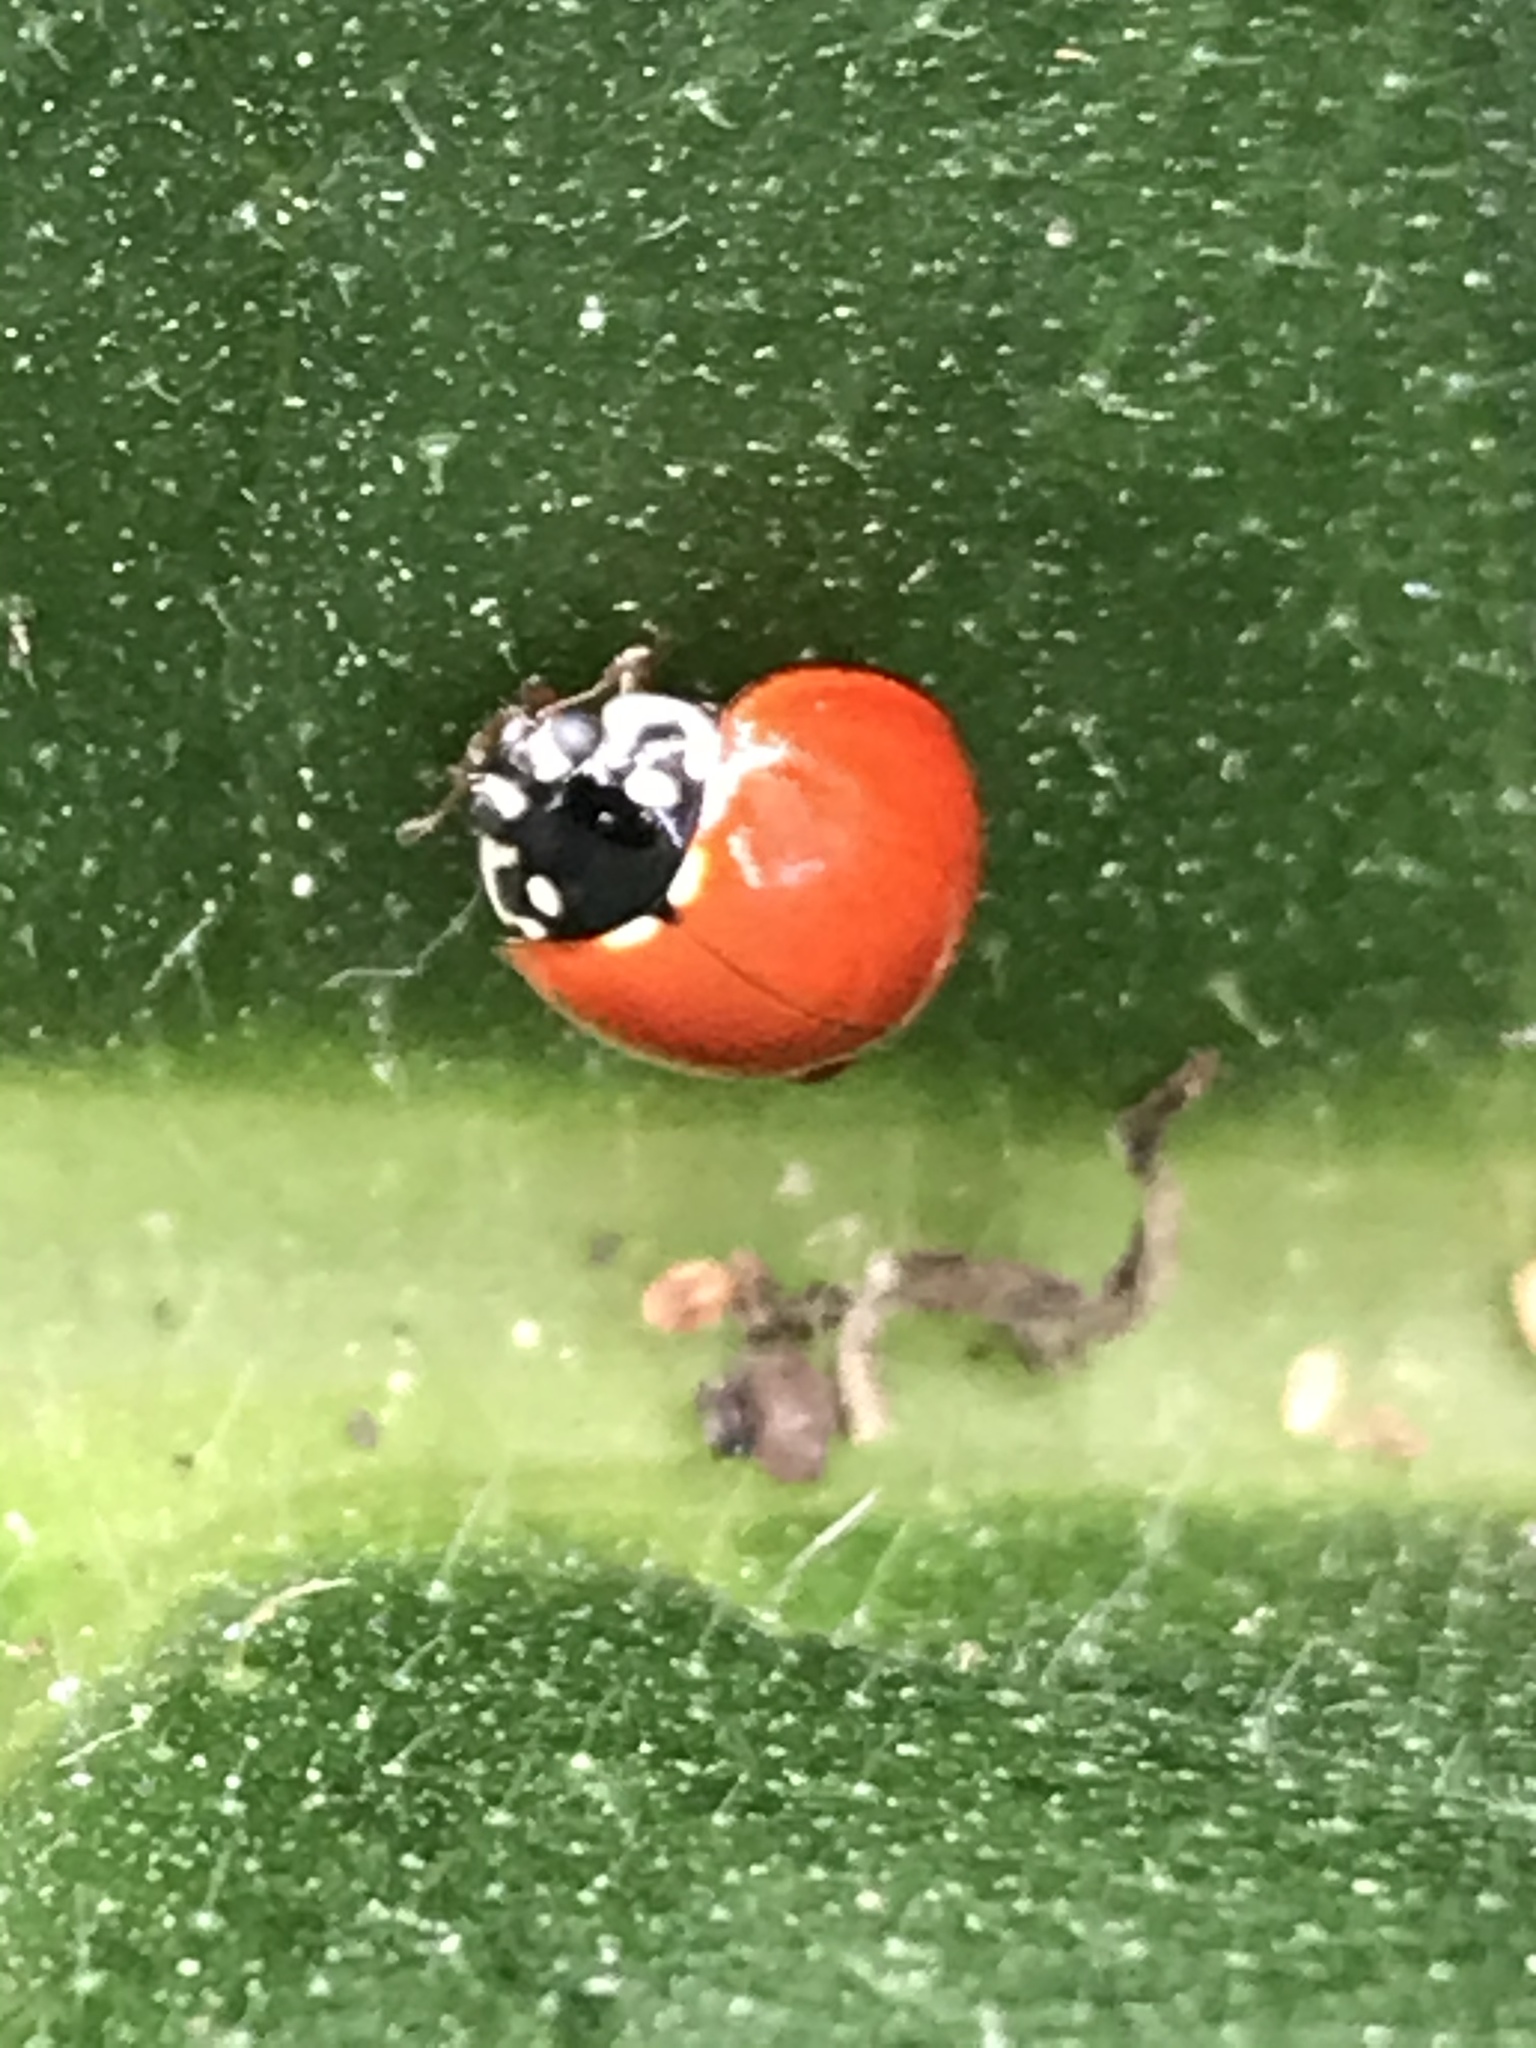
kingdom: Animalia
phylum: Arthropoda
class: Insecta
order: Coleoptera
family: Coccinellidae
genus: Cycloneda
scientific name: Cycloneda sanguinea
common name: Ladybird beetle
